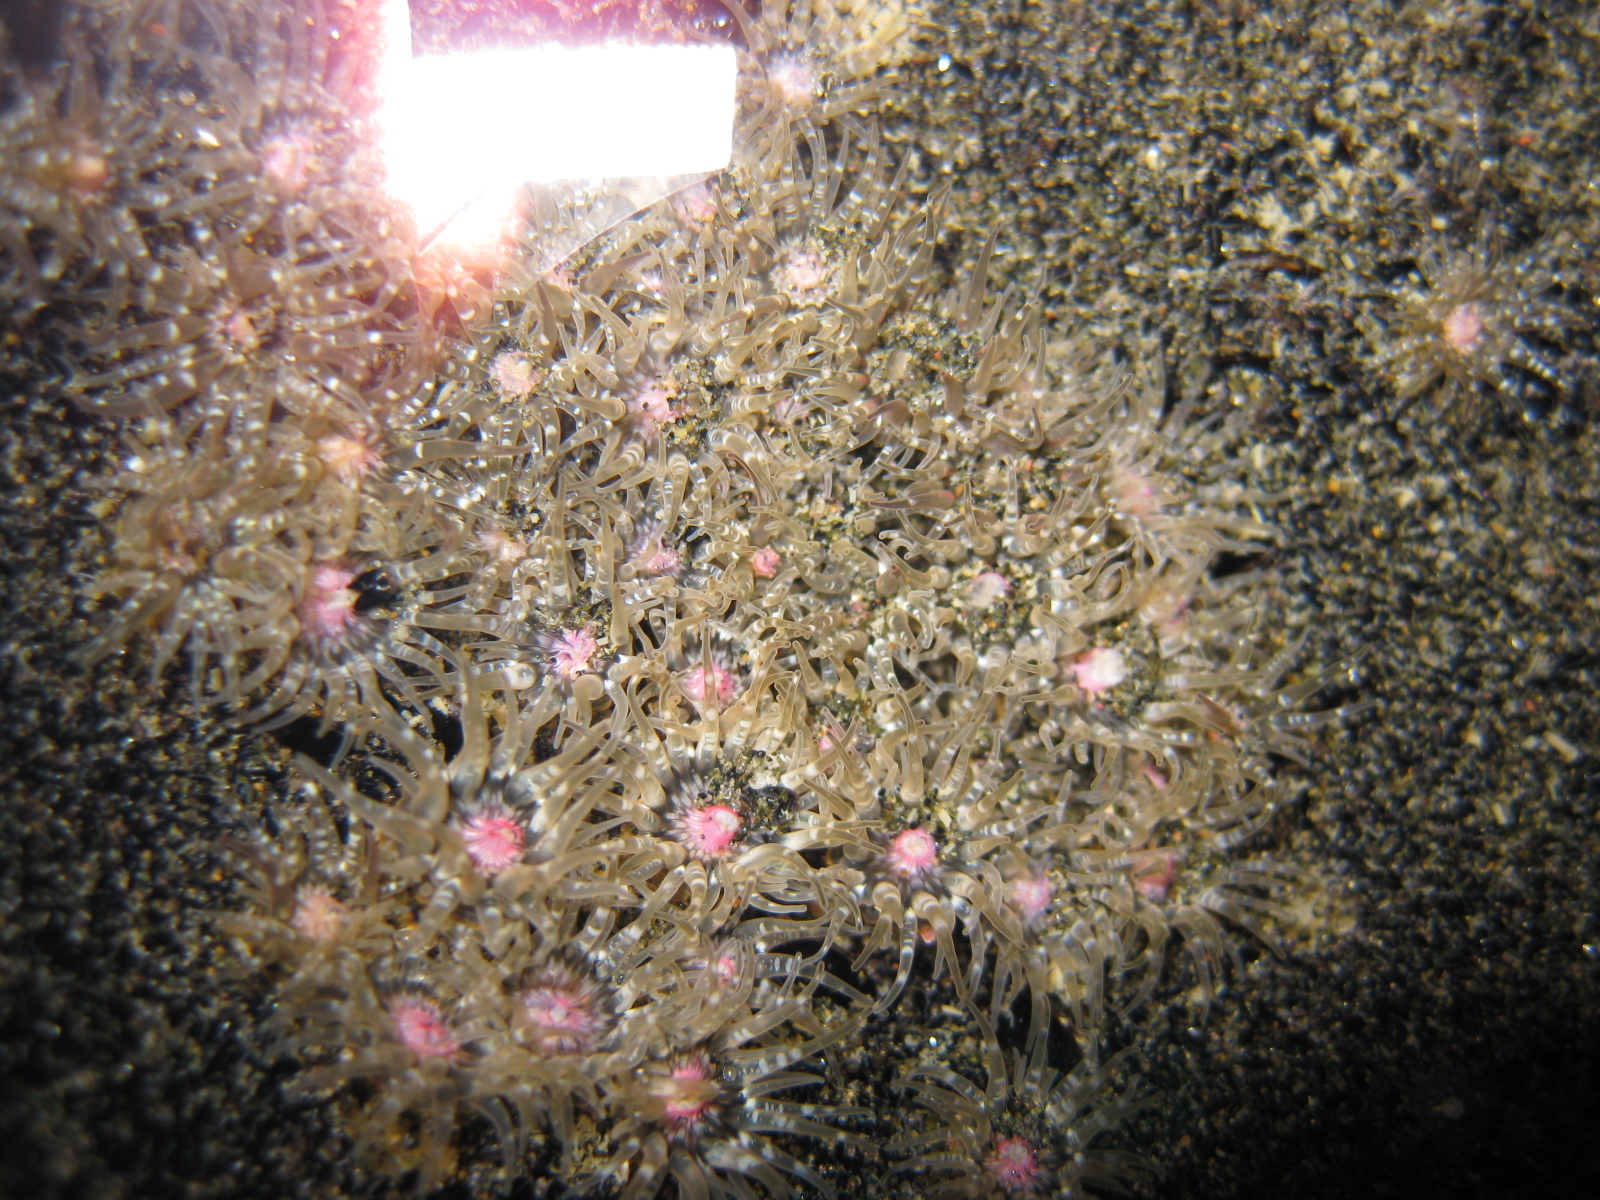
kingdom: Animalia
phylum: Cnidaria
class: Anthozoa
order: Actiniaria
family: Actiniidae
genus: Anthopleura
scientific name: Anthopleura minima
